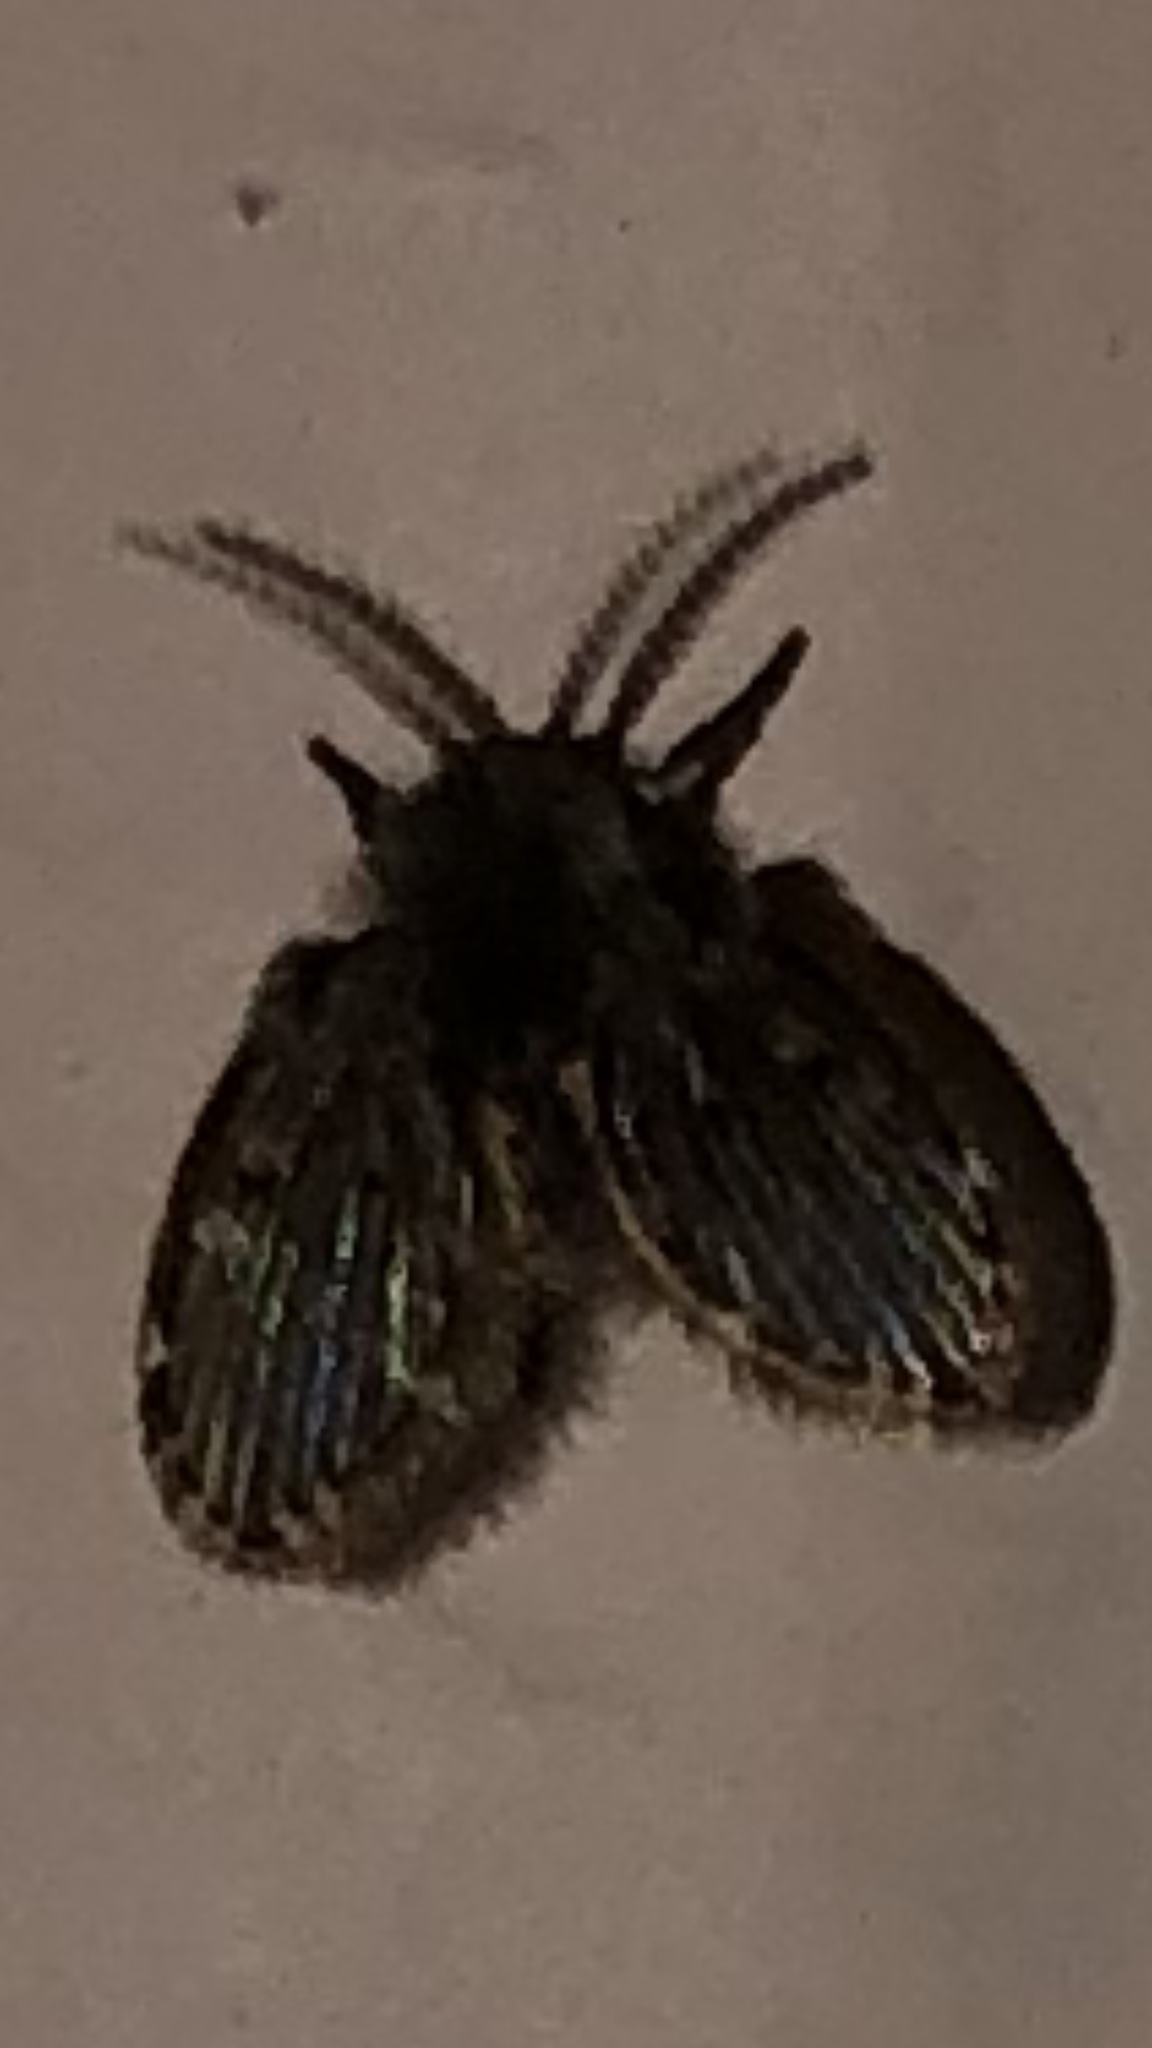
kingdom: Animalia
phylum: Arthropoda
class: Insecta
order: Diptera
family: Psychodidae
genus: Clogmia
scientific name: Clogmia albipunctatus
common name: White-spotted moth fly
